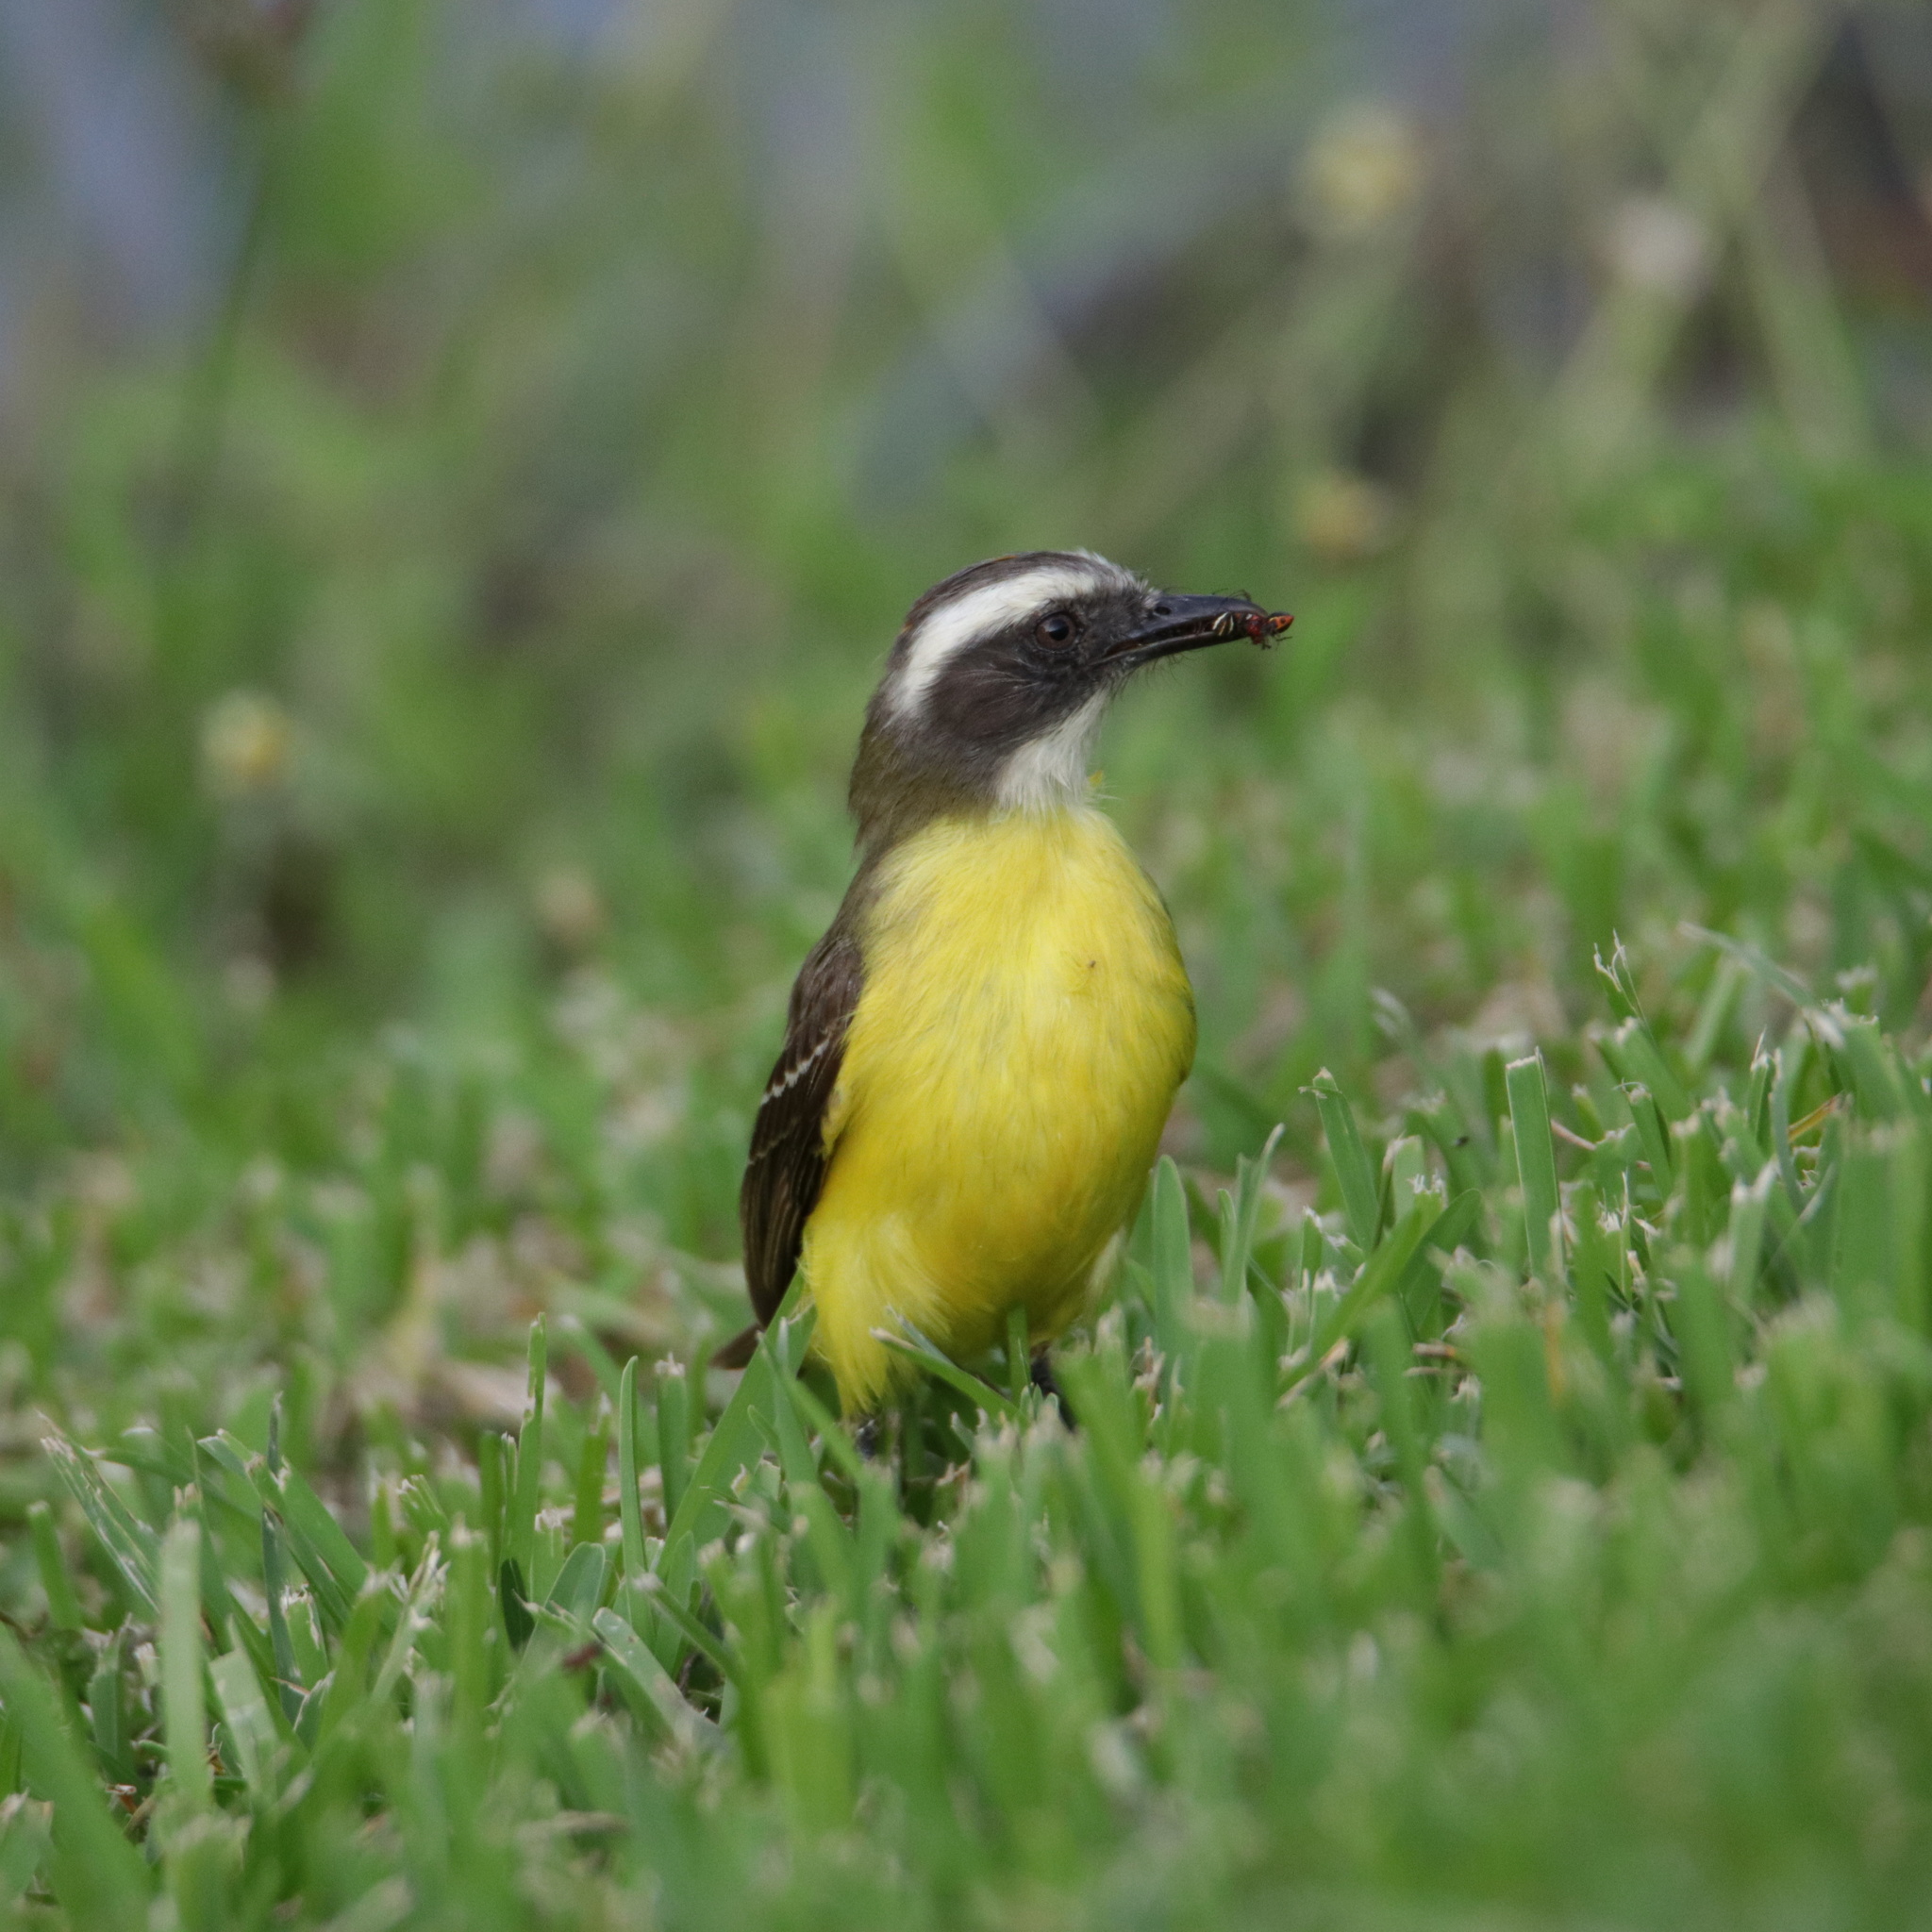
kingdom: Animalia
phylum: Chordata
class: Aves
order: Passeriformes
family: Tyrannidae
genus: Myiozetetes
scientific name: Myiozetetes similis
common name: Social flycatcher
